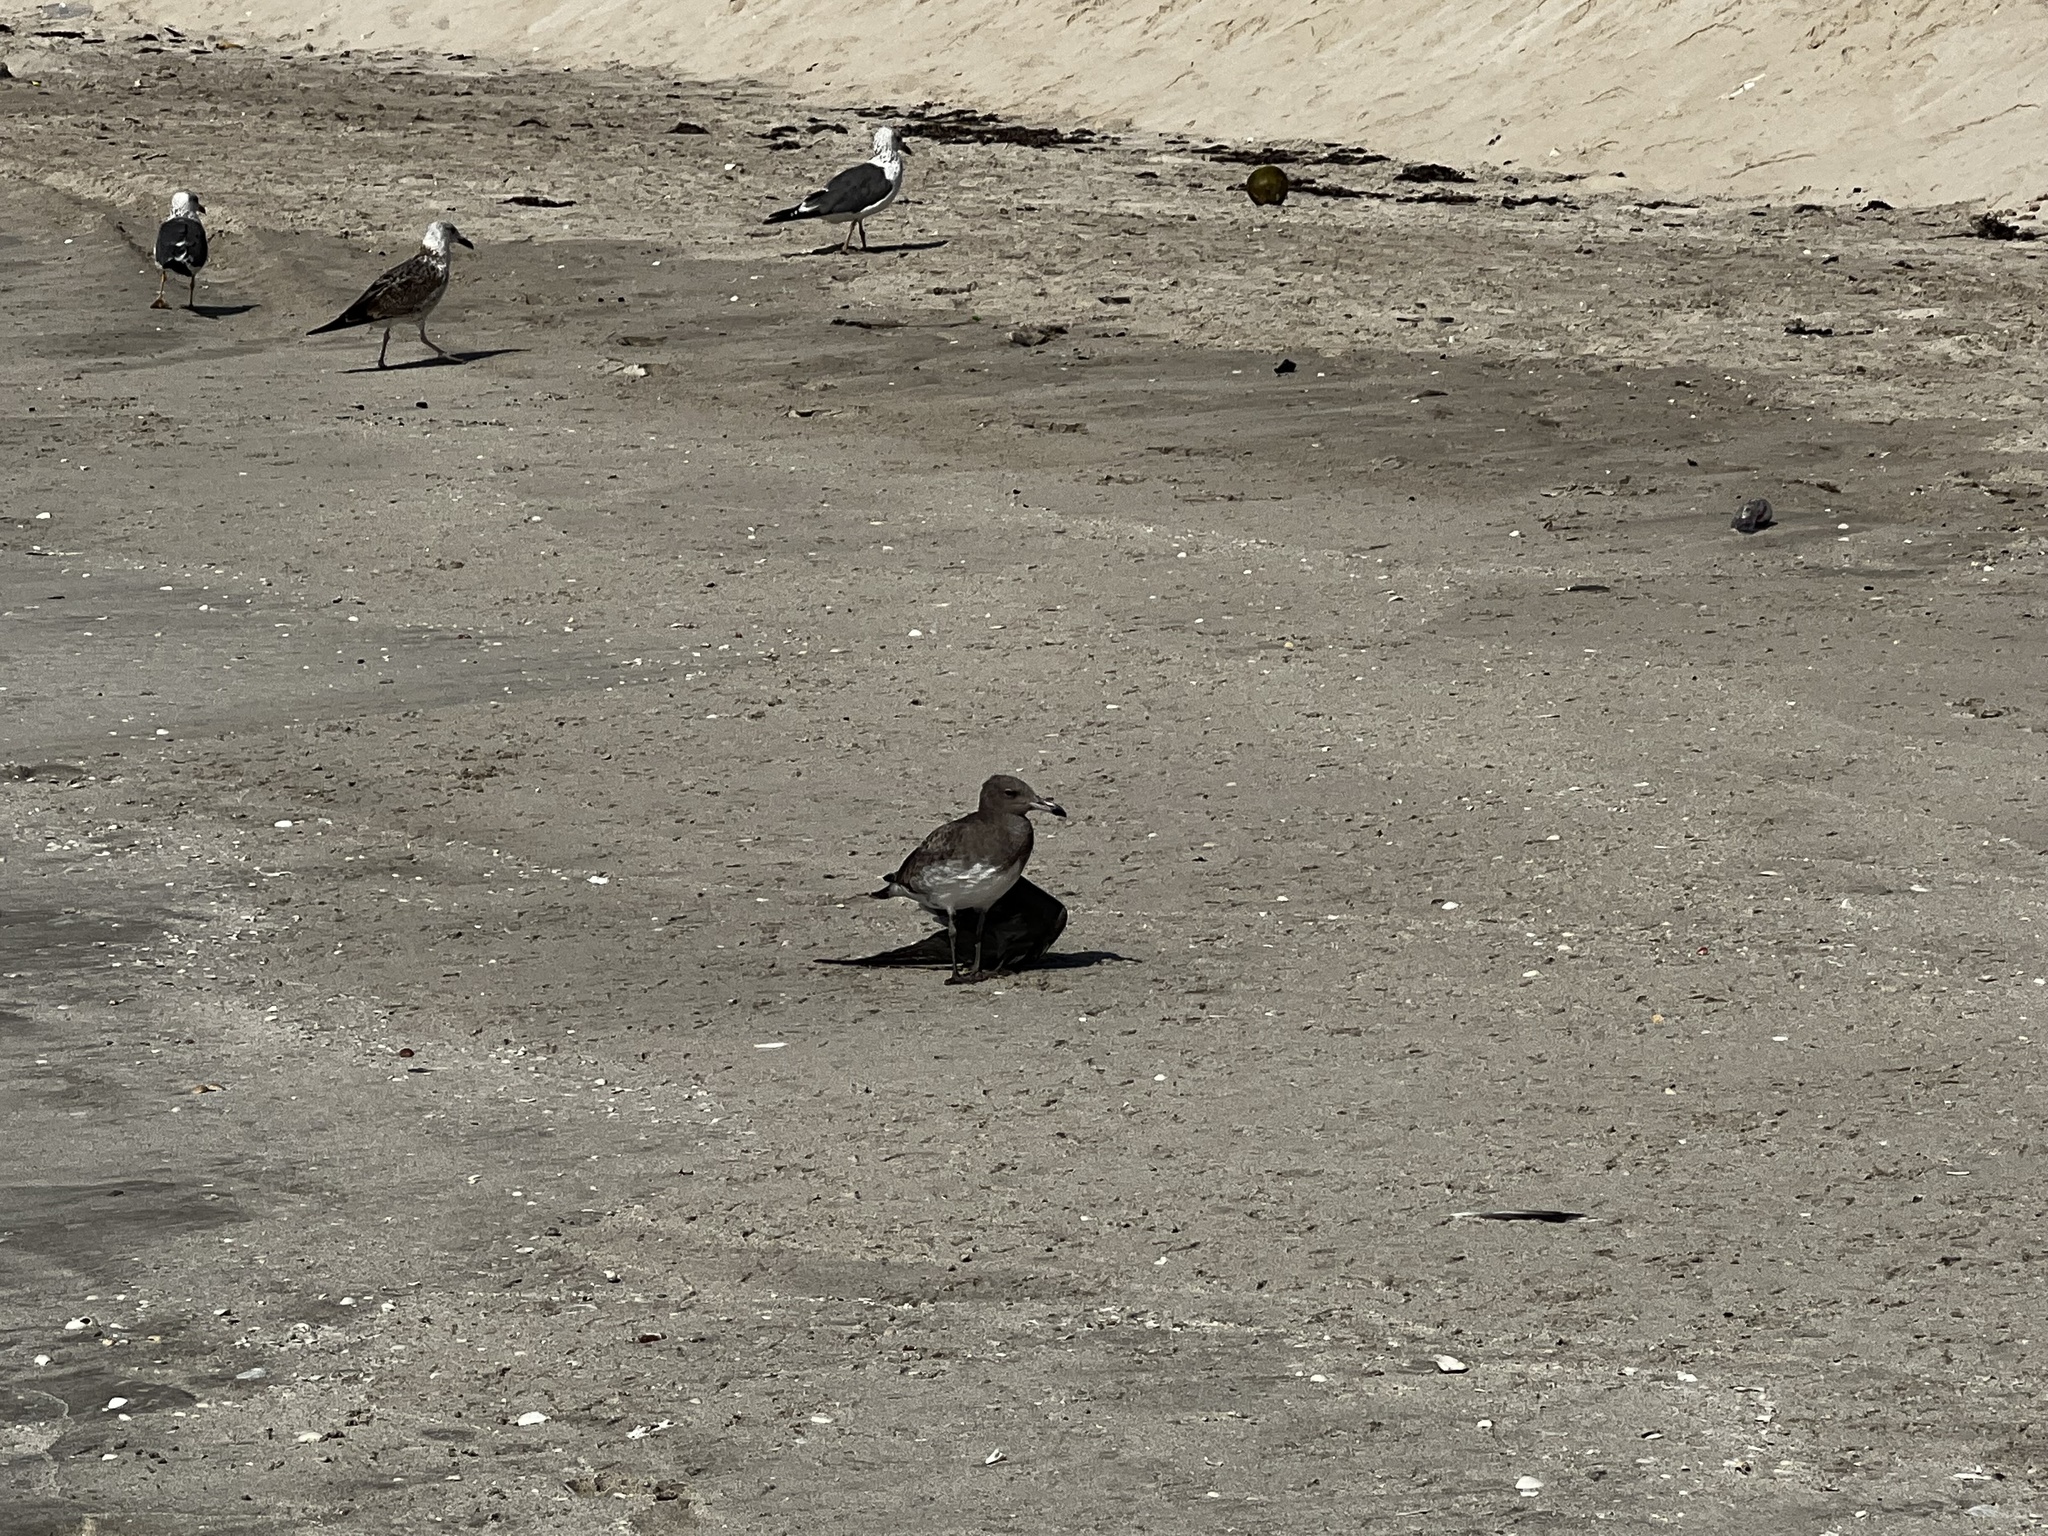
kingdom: Animalia
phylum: Chordata
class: Aves
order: Charadriiformes
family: Laridae
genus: Ichthyaetus
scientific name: Ichthyaetus hemprichii
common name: Sooty gull
